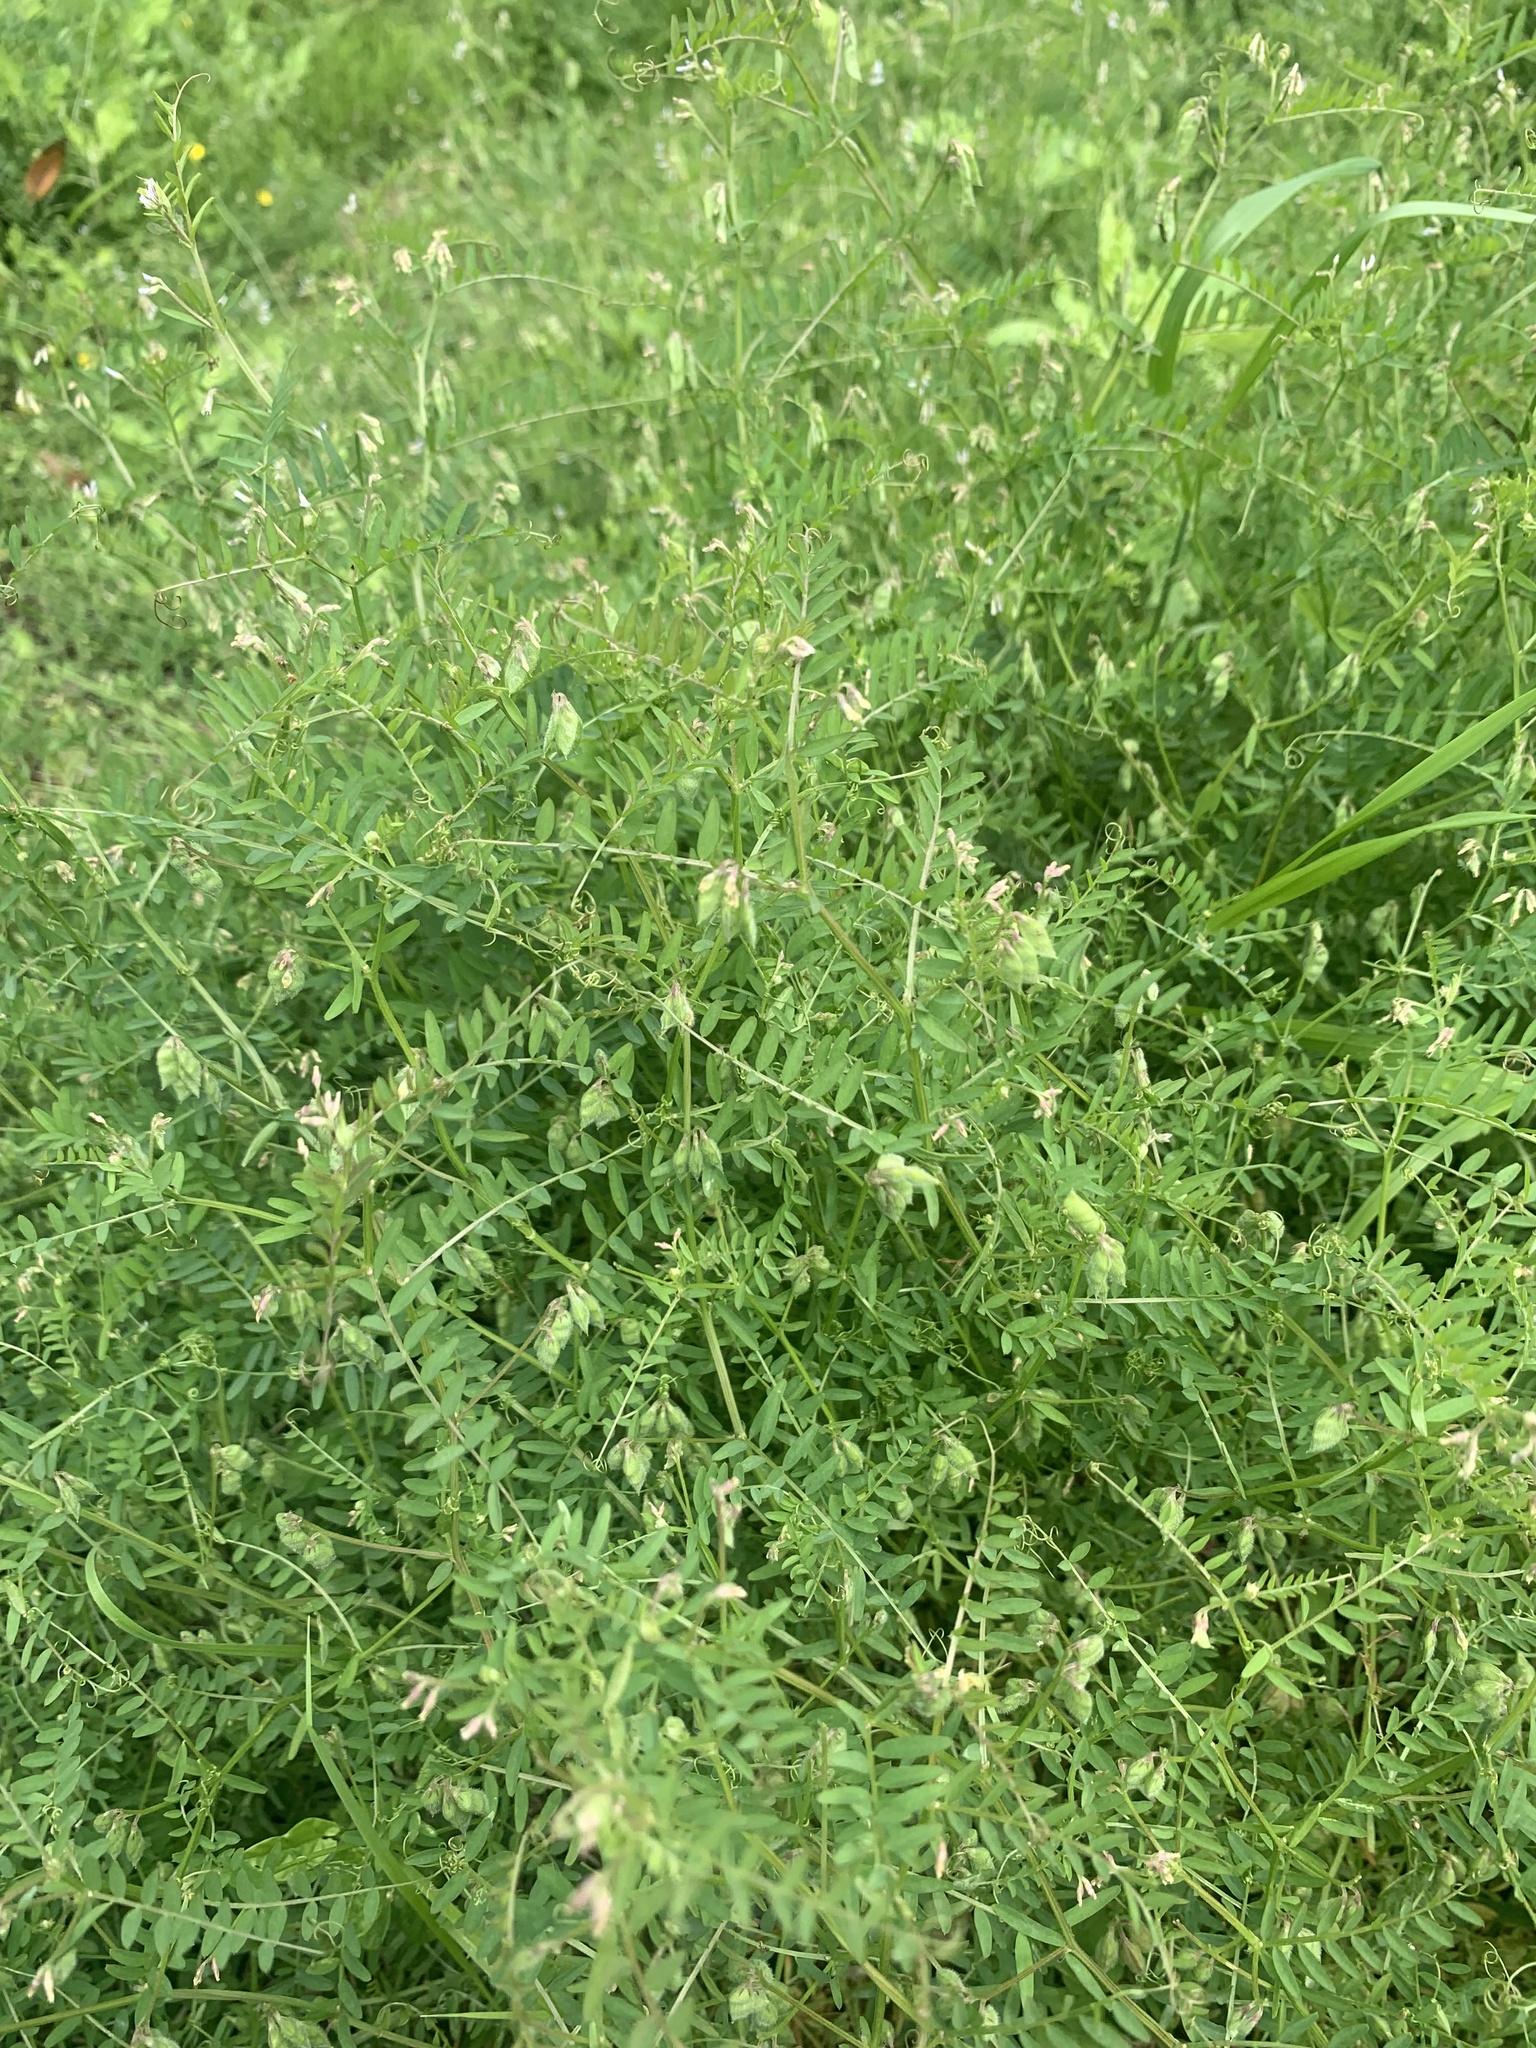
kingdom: Plantae
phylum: Tracheophyta
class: Magnoliopsida
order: Fabales
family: Fabaceae
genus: Vicia
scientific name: Vicia hirsuta
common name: Tiny vetch
